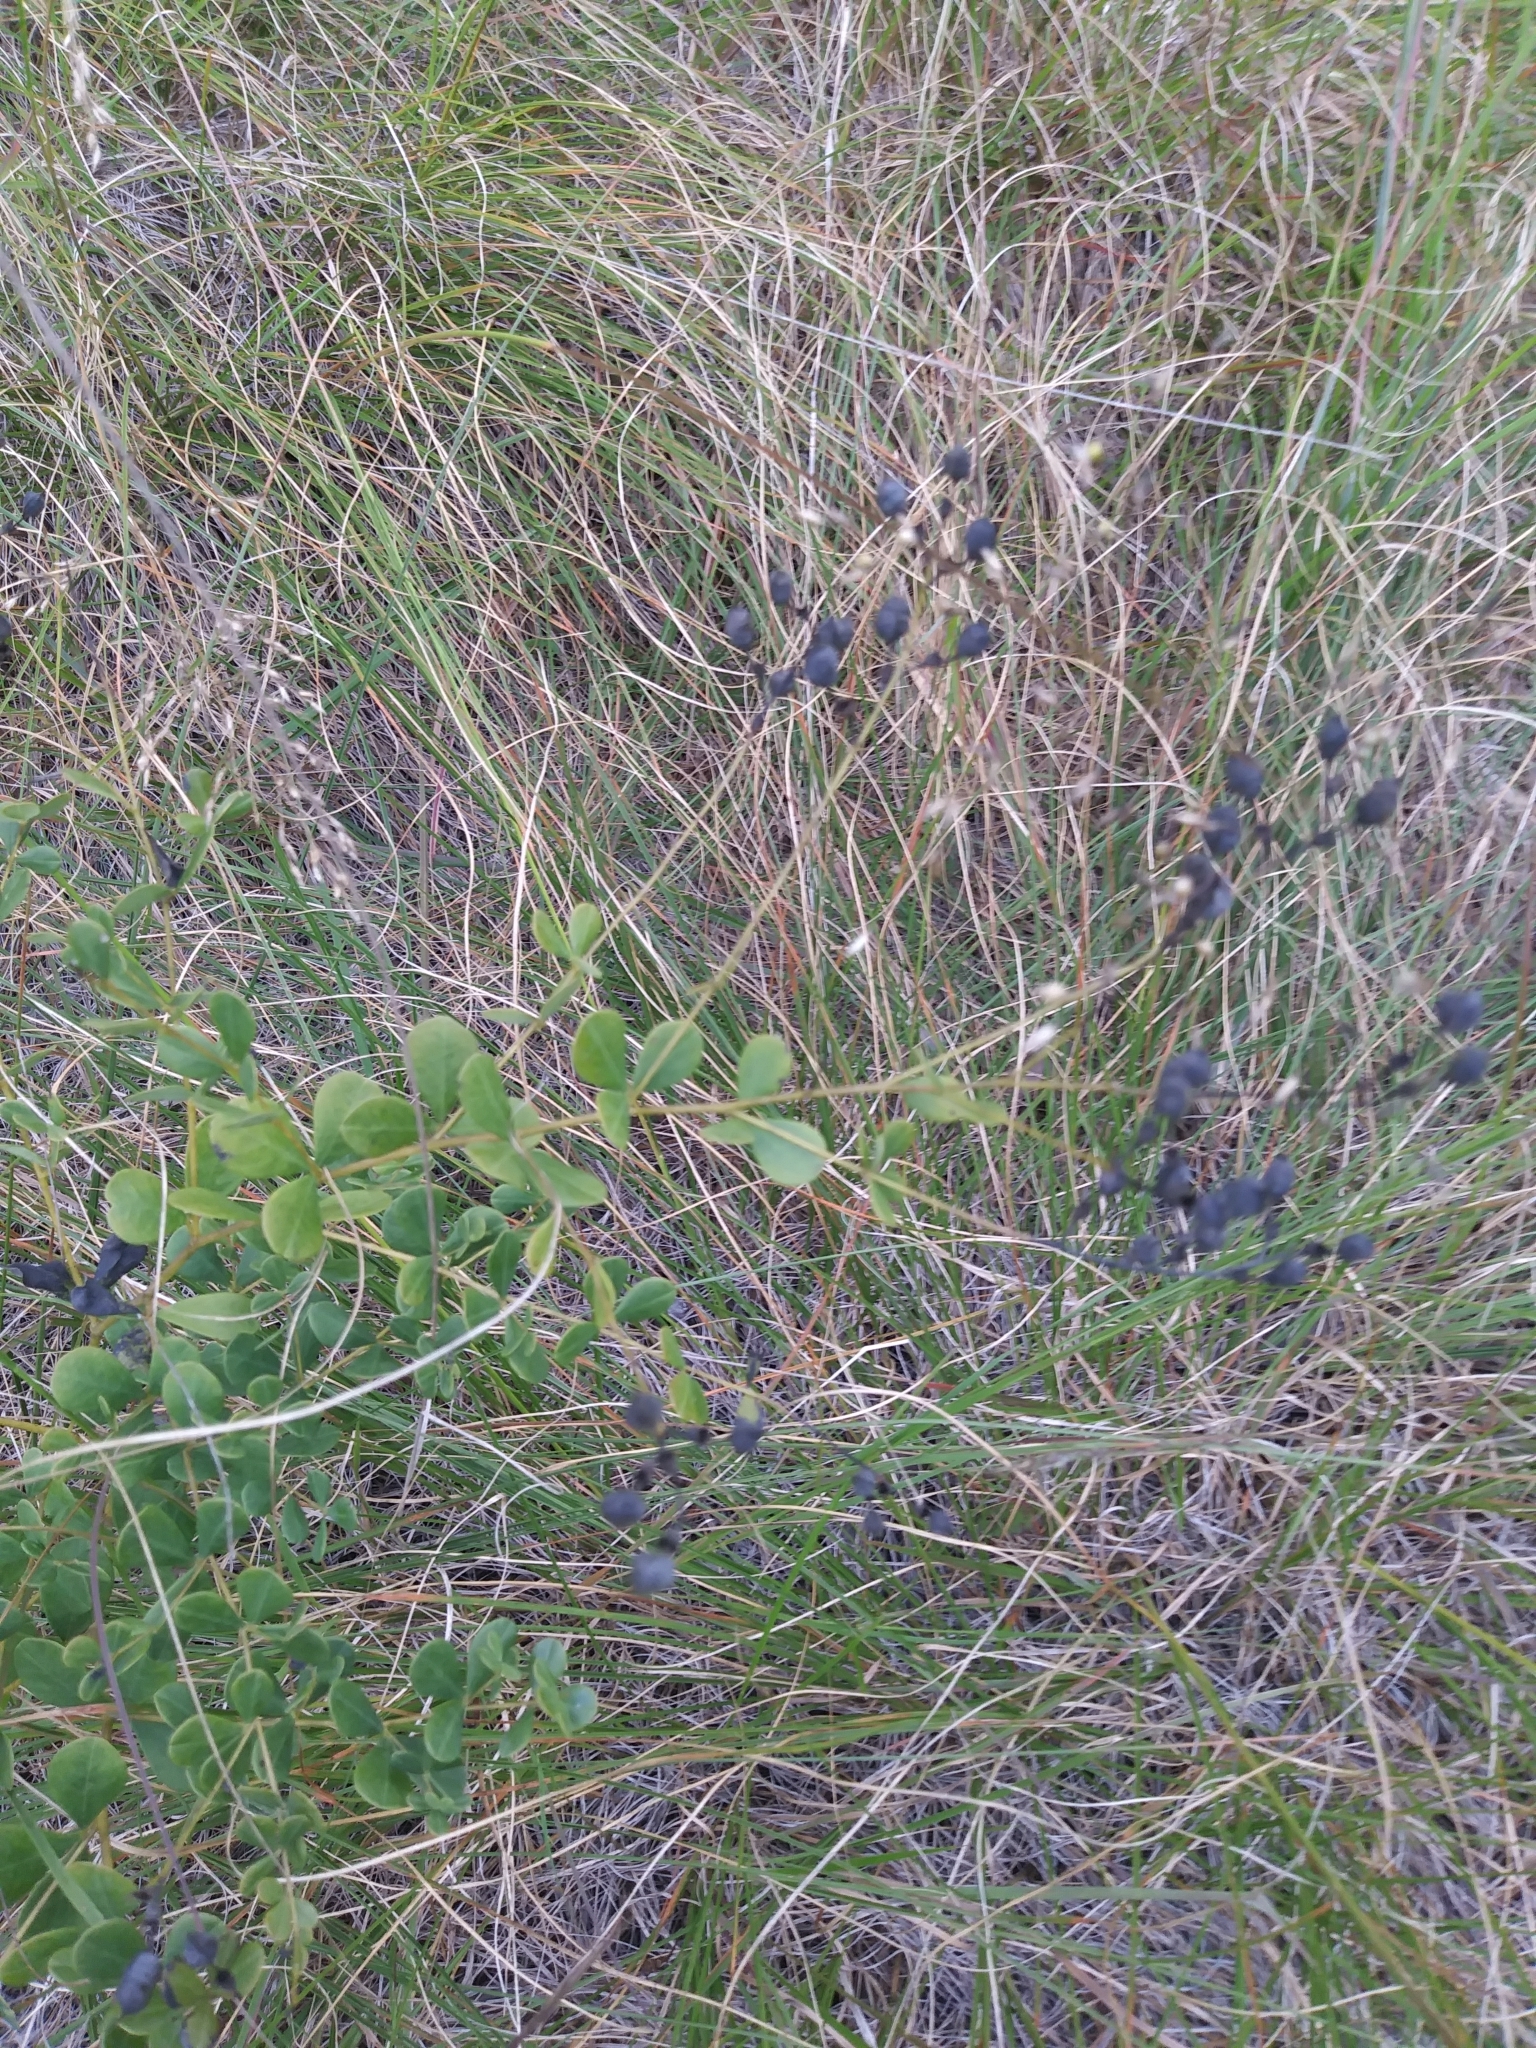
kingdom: Plantae
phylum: Tracheophyta
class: Magnoliopsida
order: Fabales
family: Fabaceae
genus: Baptisia
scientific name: Baptisia tinctoria
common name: Wild indigo
